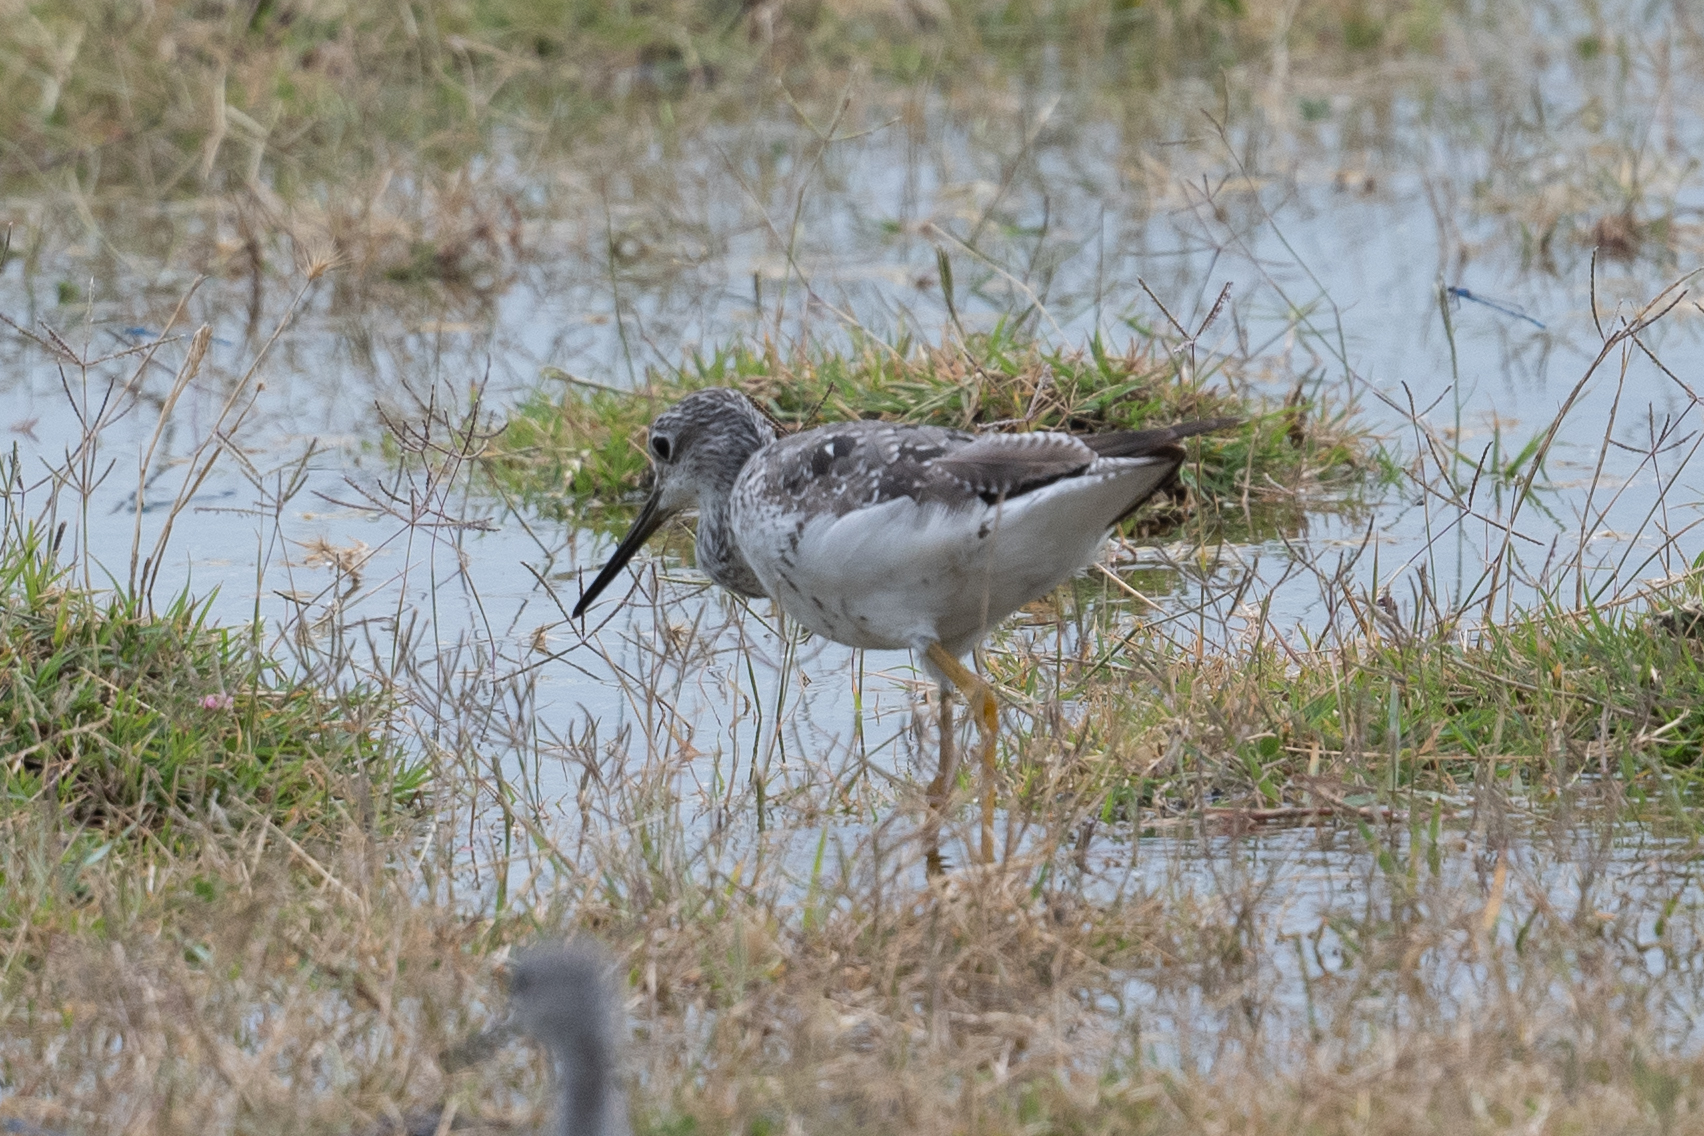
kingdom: Animalia
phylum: Chordata
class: Aves
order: Charadriiformes
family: Scolopacidae
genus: Tringa
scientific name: Tringa melanoleuca
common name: Greater yellowlegs
